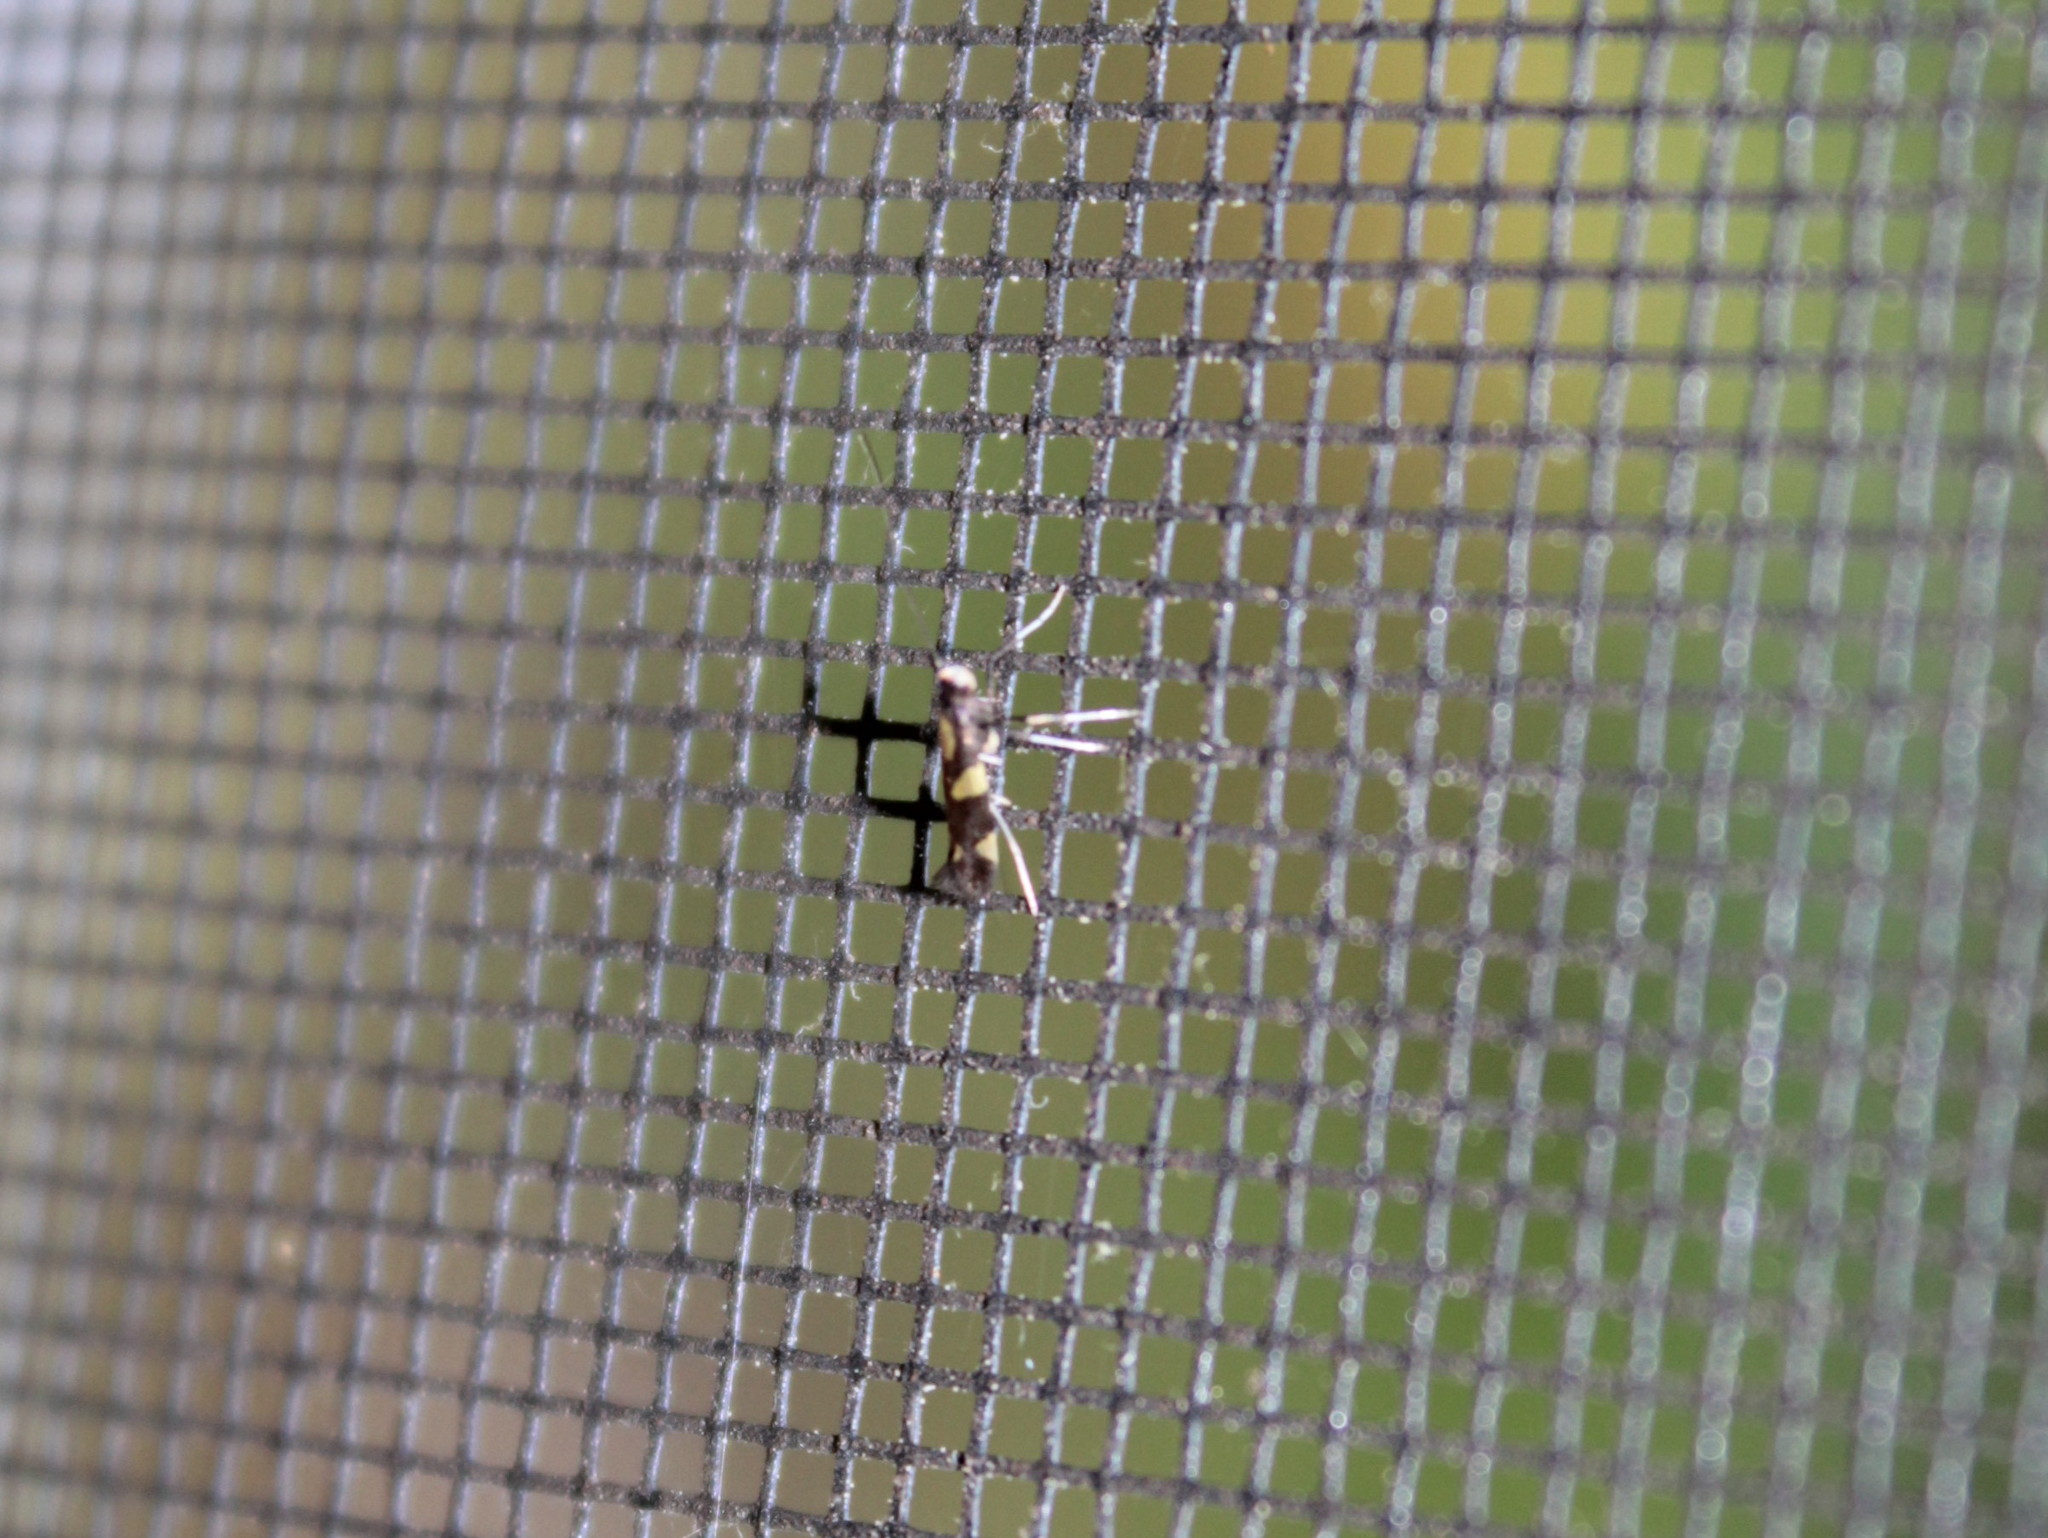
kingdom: Animalia
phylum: Arthropoda
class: Insecta
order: Lepidoptera
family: Gracillariidae
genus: Caloptilia
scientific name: Caloptilia vacciniella
